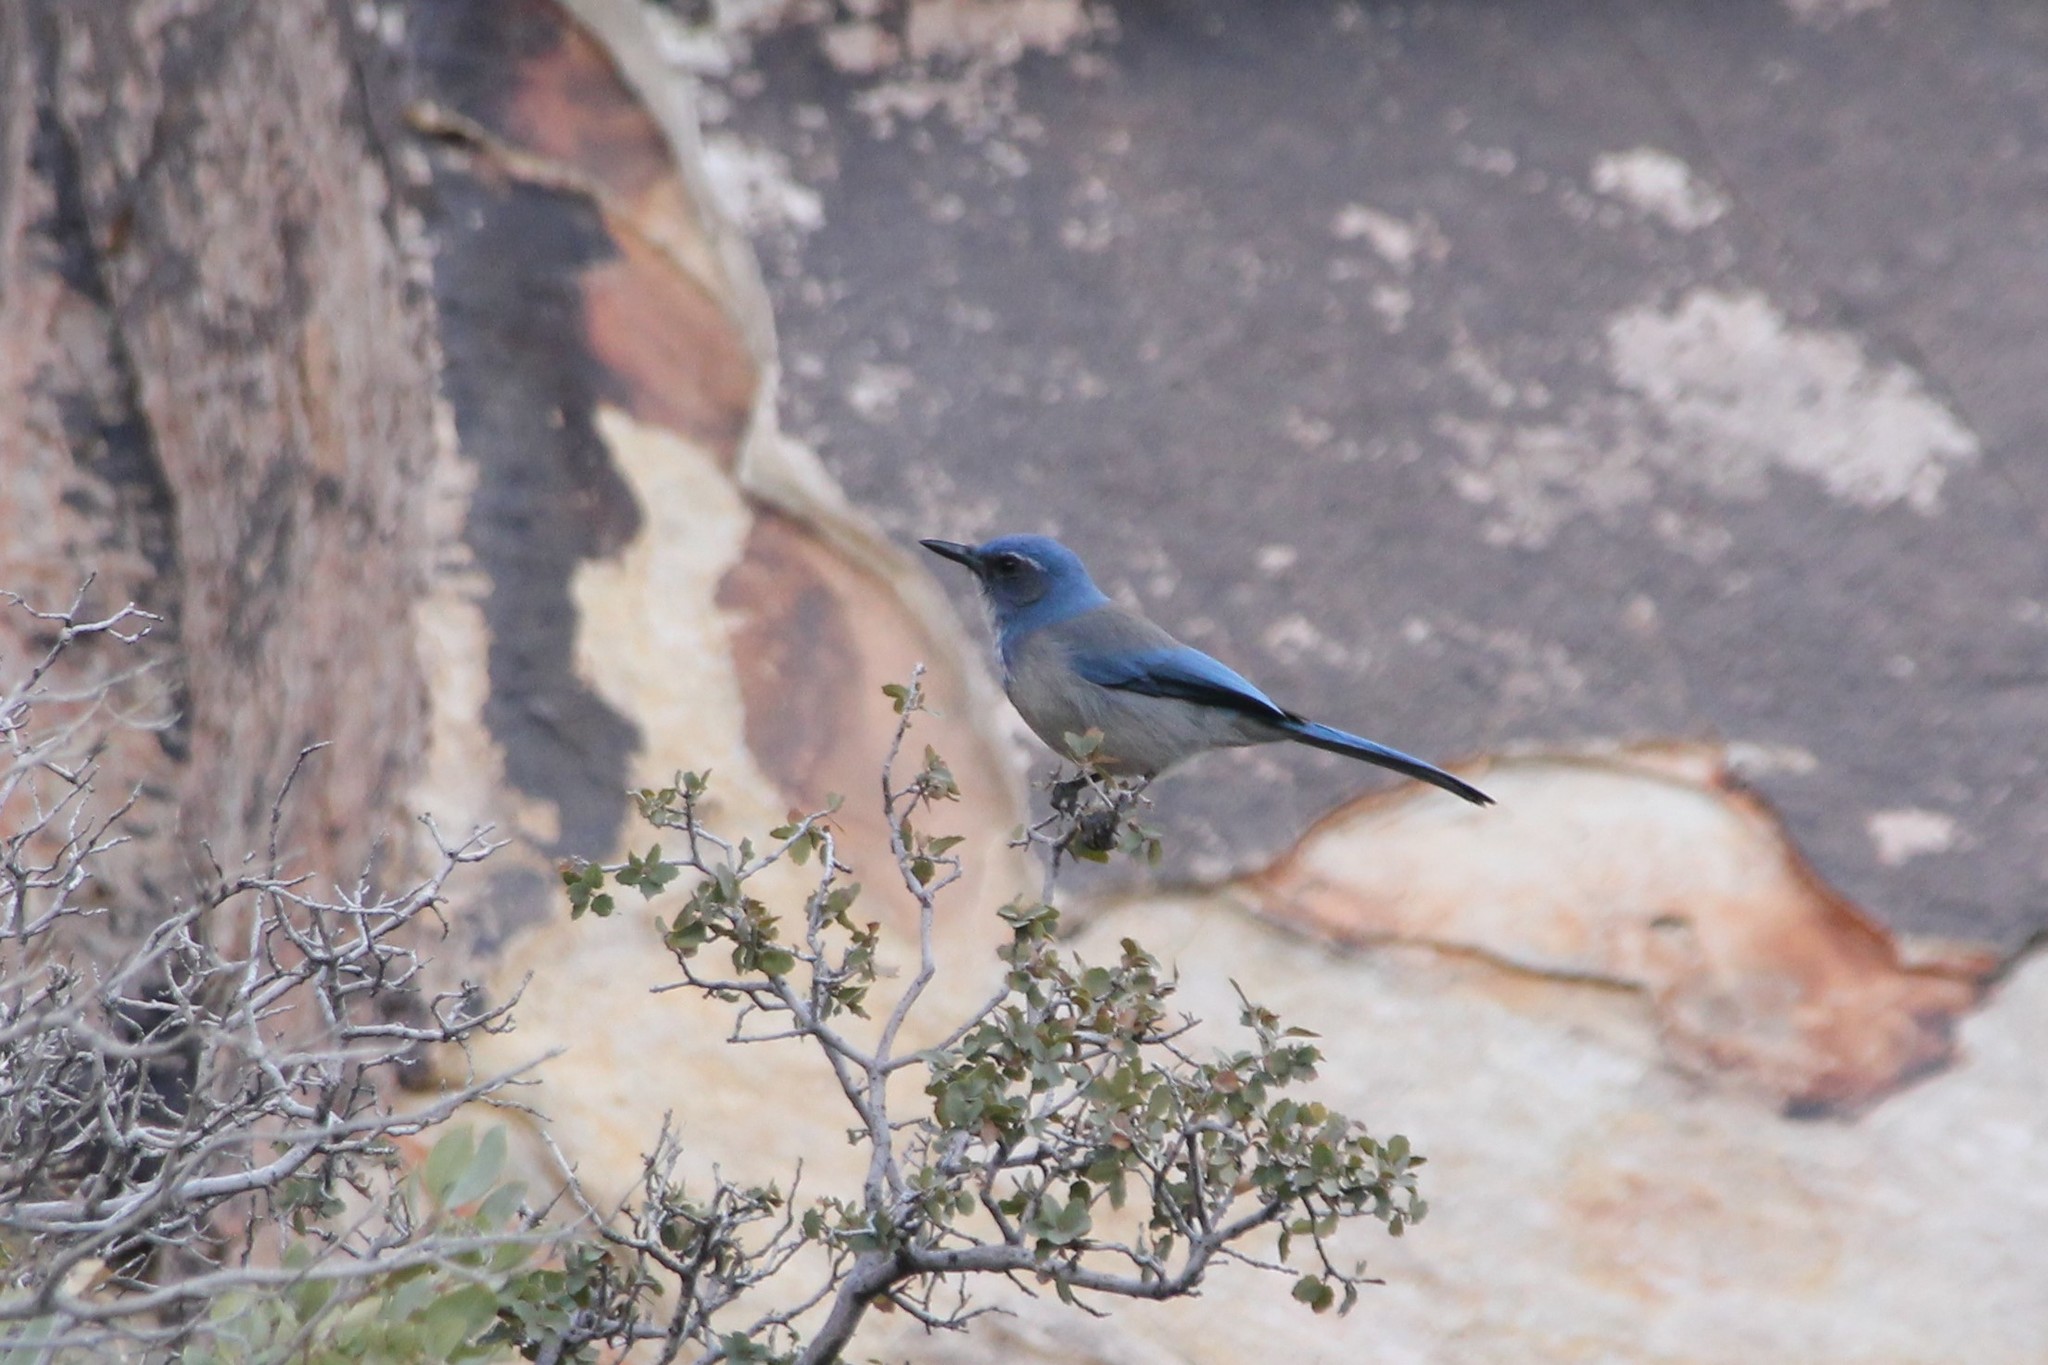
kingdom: Animalia
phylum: Chordata
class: Aves
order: Passeriformes
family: Corvidae
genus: Aphelocoma
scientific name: Aphelocoma woodhouseii
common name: Woodhouse's scrub-jay
